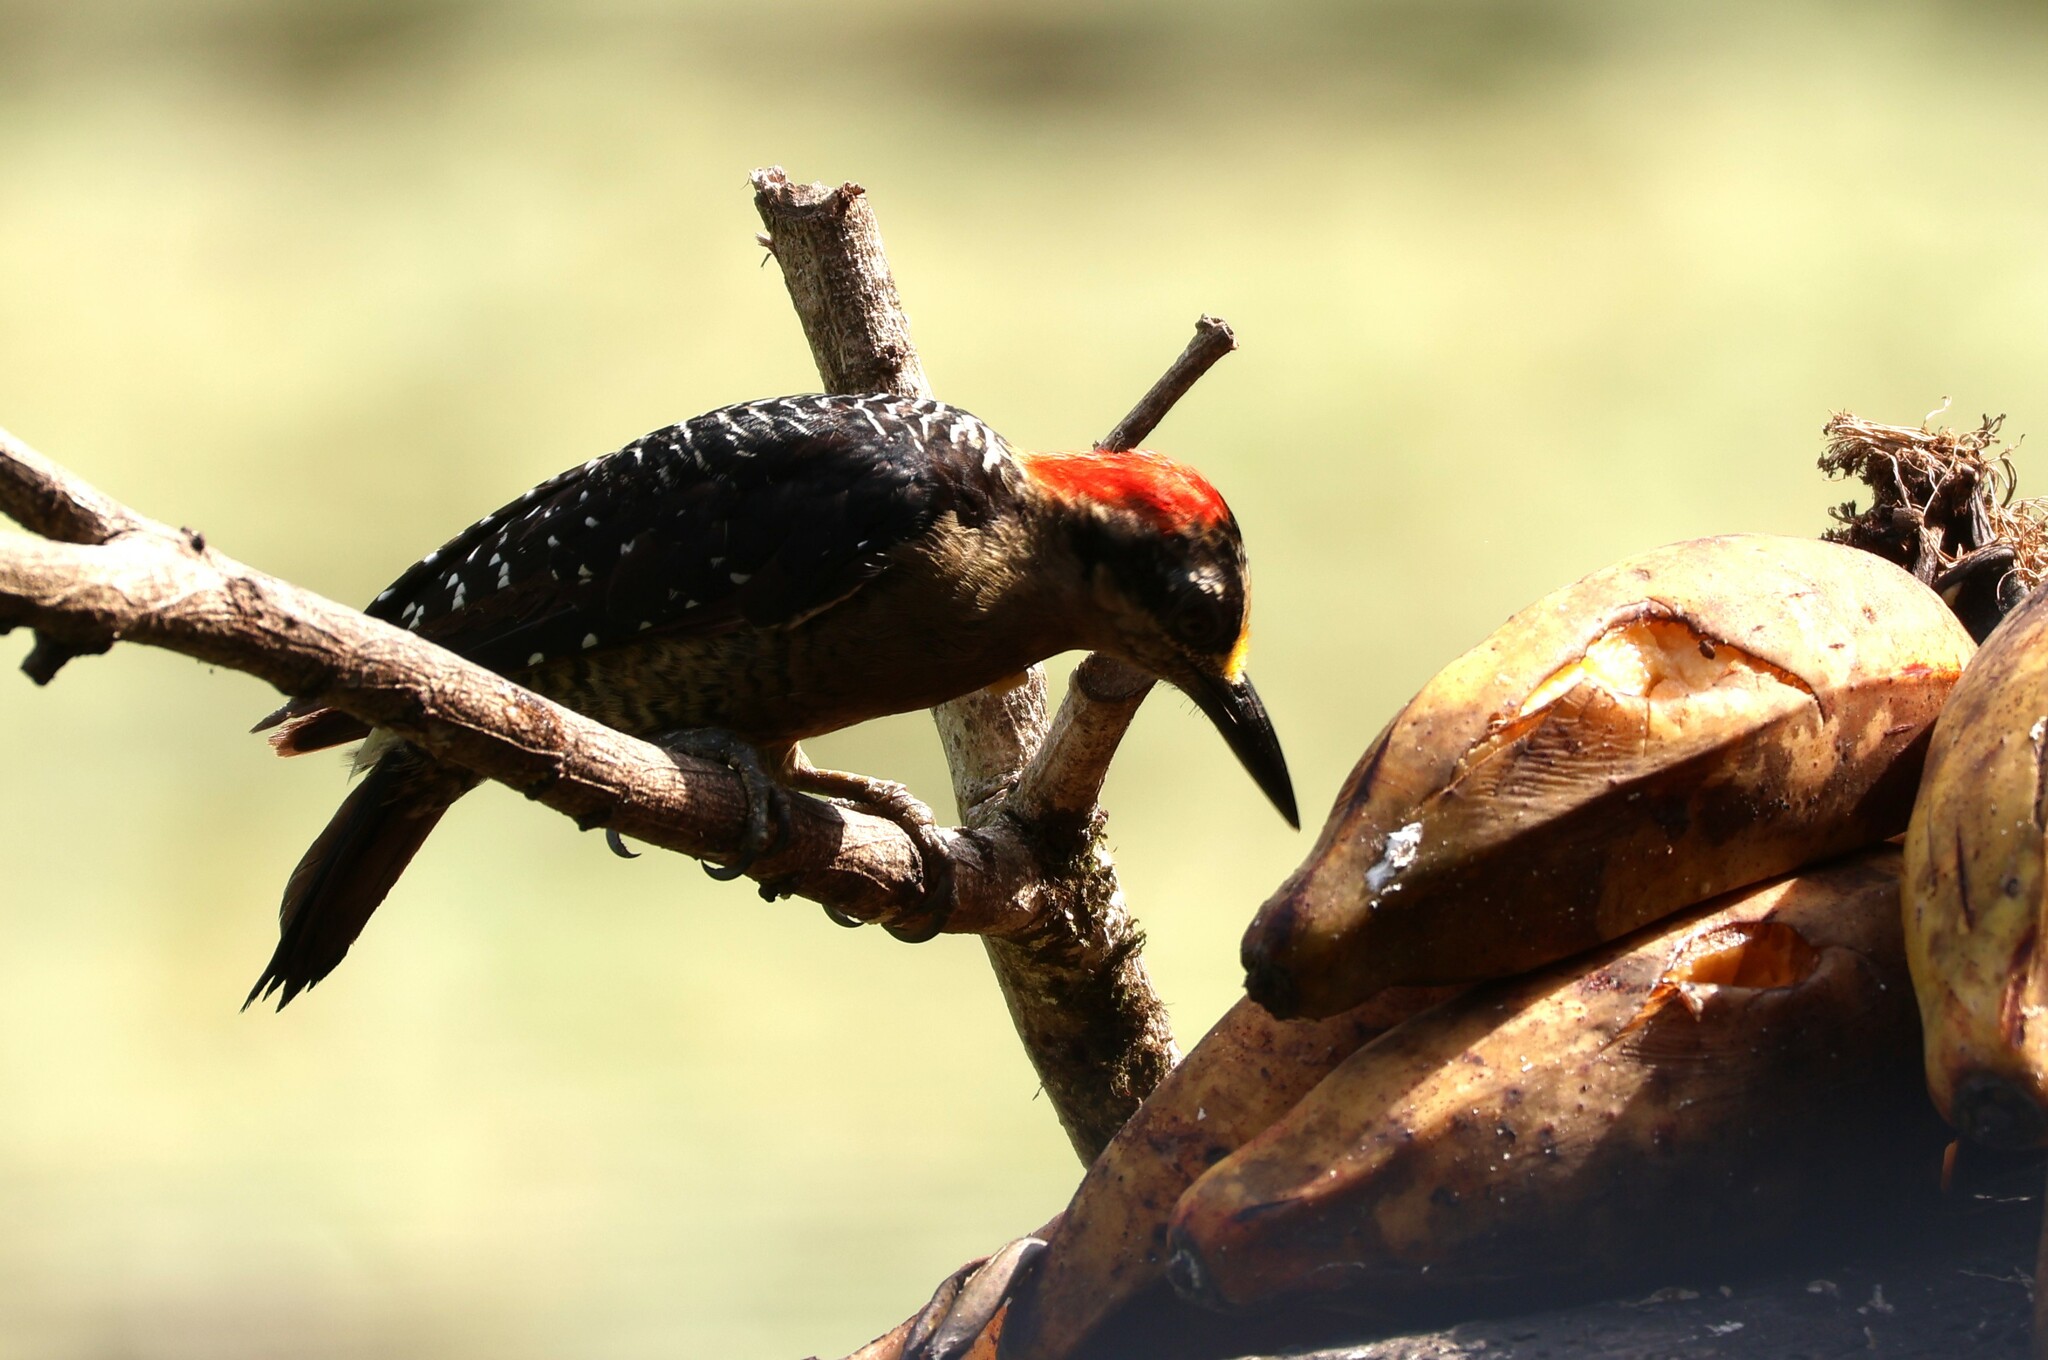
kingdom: Animalia
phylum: Chordata
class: Aves
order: Piciformes
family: Picidae
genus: Melanerpes
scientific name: Melanerpes pucherani
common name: Black-cheeked woodpecker
